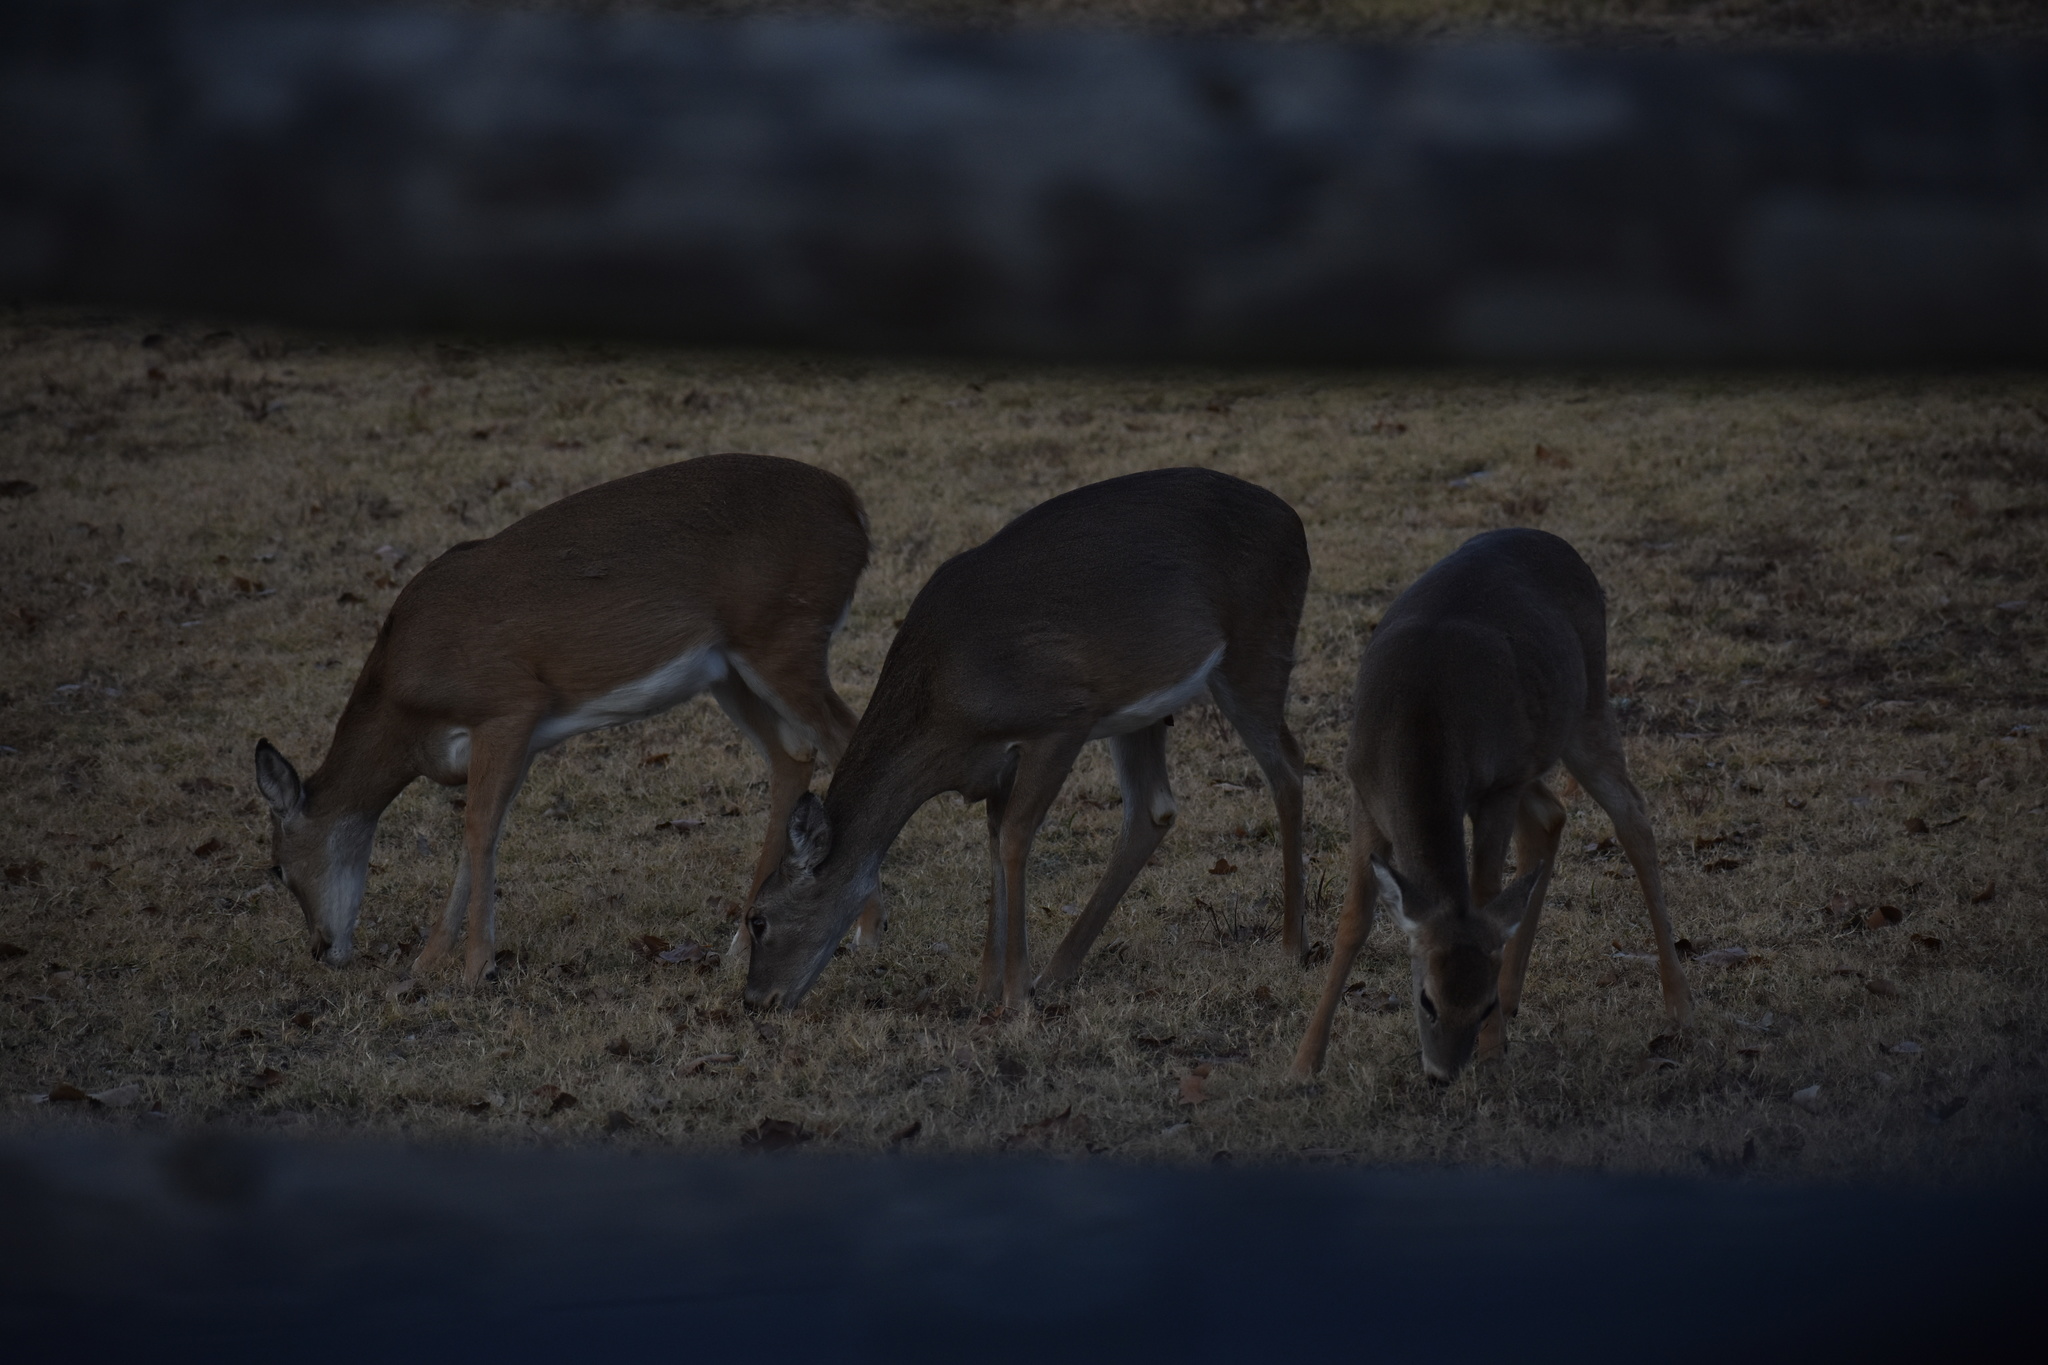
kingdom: Animalia
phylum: Chordata
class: Mammalia
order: Artiodactyla
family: Cervidae
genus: Odocoileus
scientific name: Odocoileus virginianus
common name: White-tailed deer
